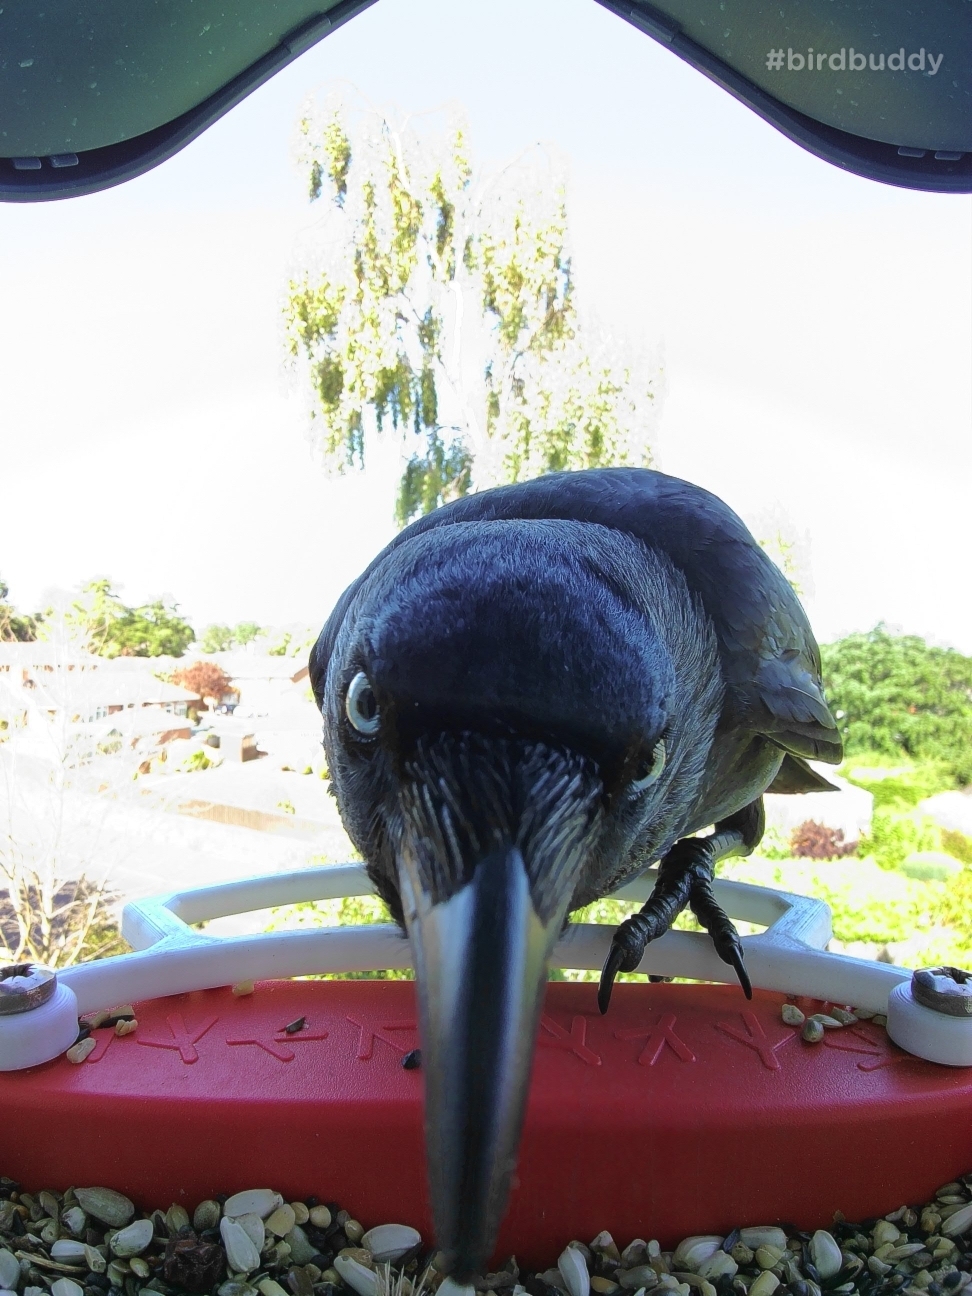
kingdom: Animalia
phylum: Chordata
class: Aves
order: Passeriformes
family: Corvidae
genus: Coloeus
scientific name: Coloeus monedula
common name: Western jackdaw
